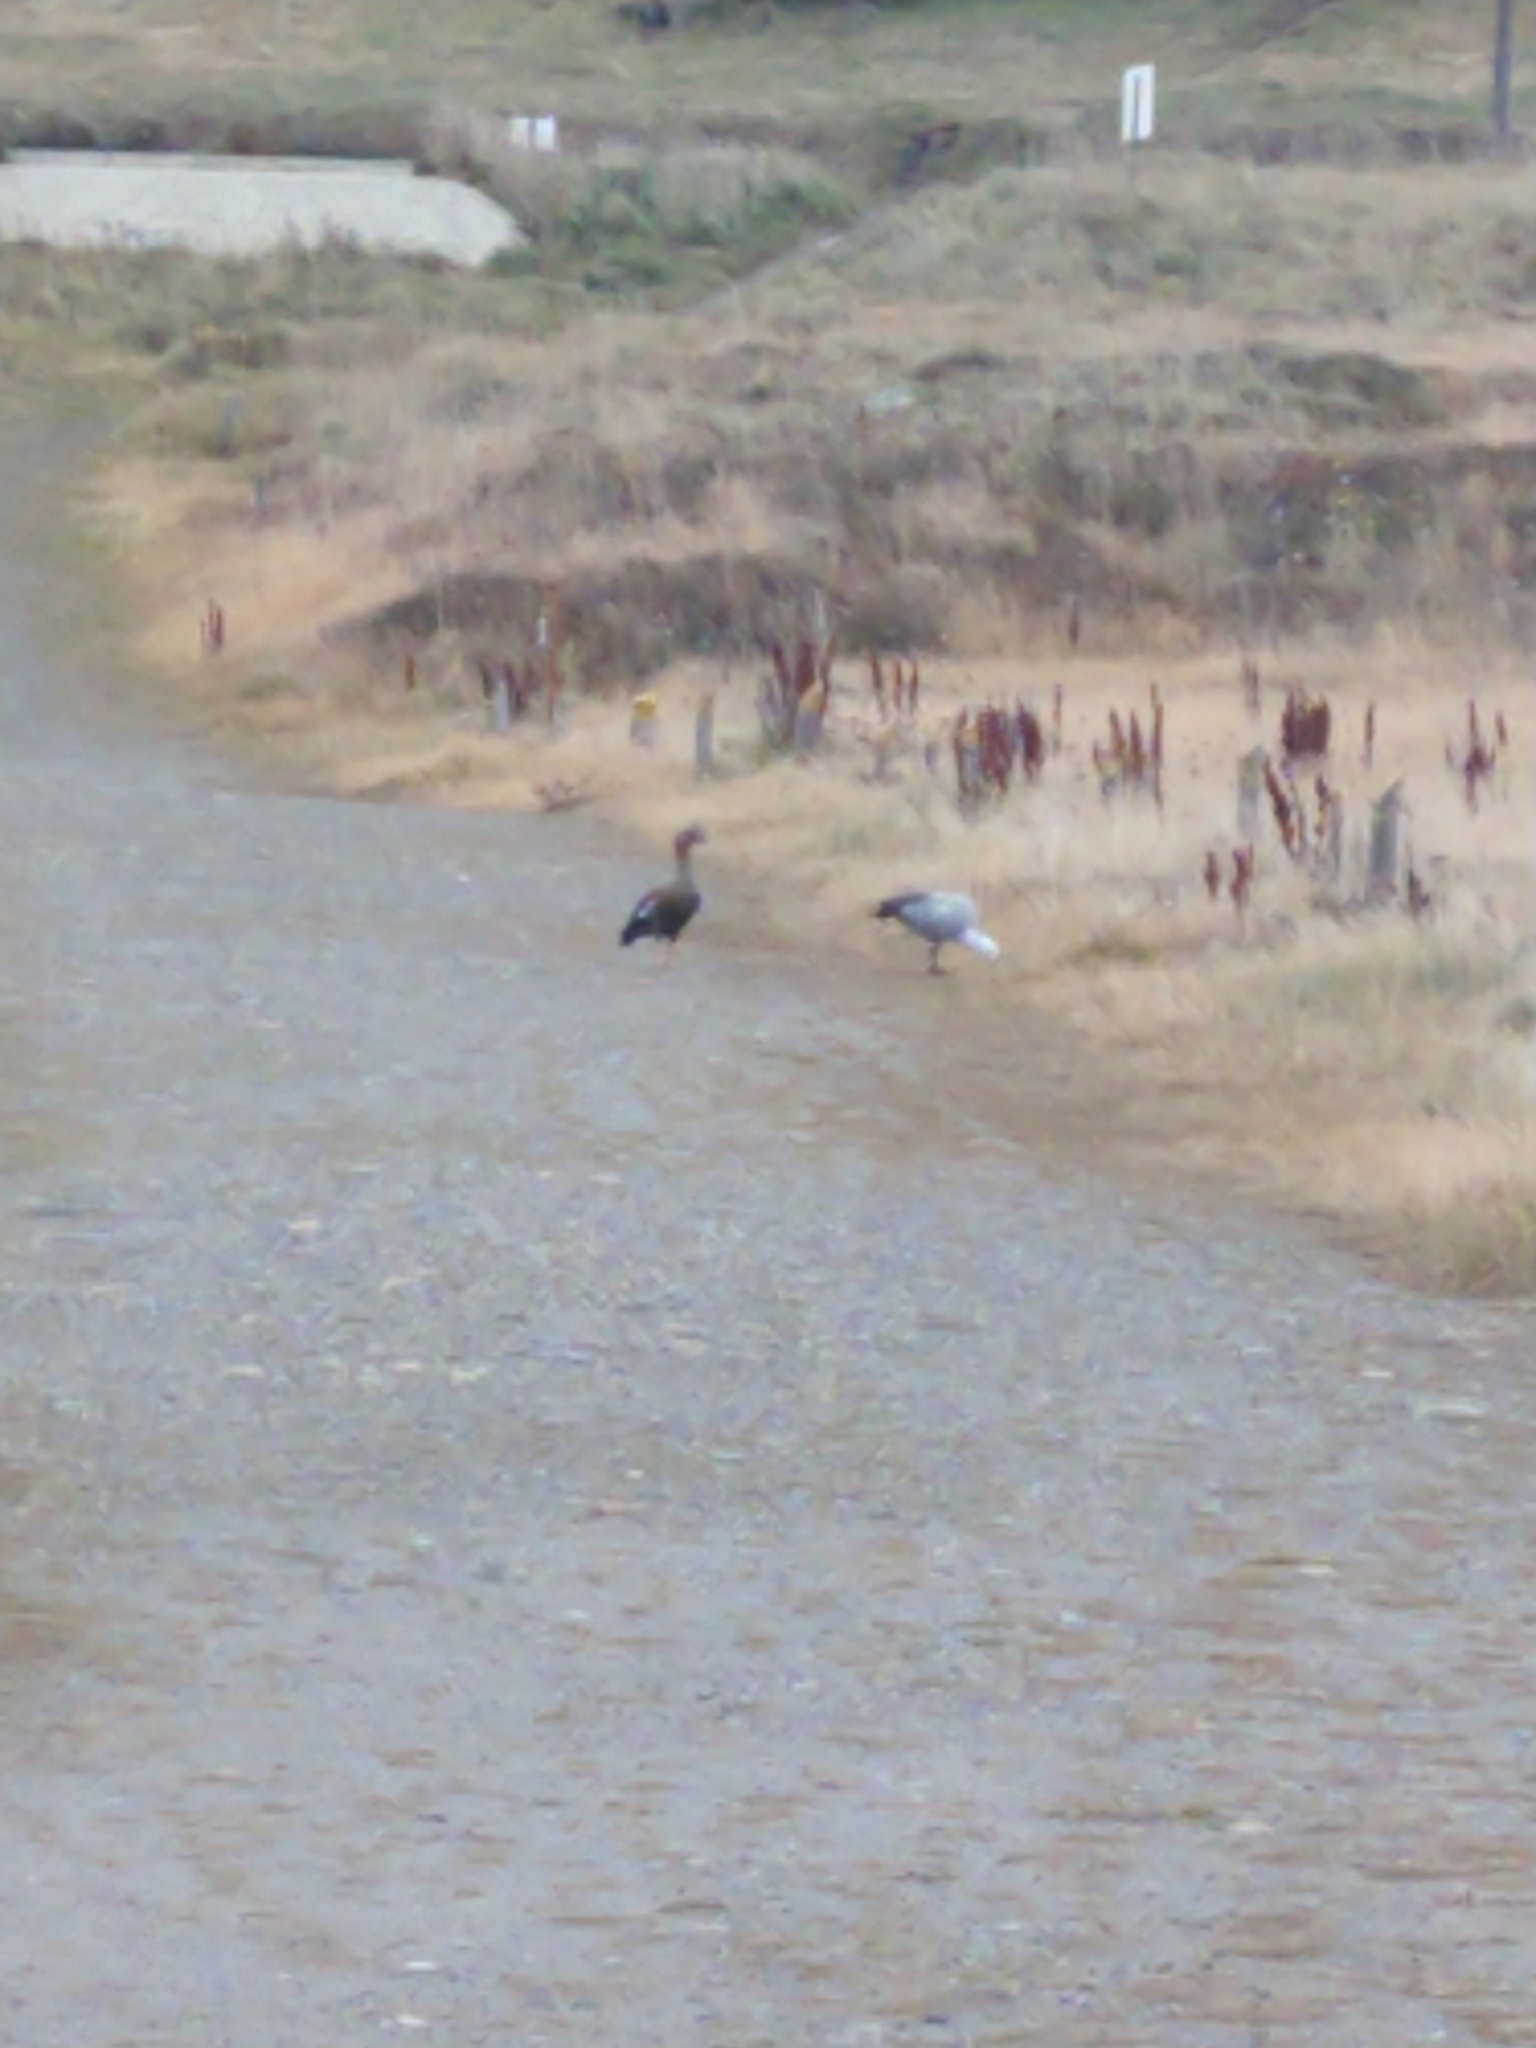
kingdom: Animalia
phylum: Chordata
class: Aves
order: Anseriformes
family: Anatidae
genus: Chloephaga
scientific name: Chloephaga picta
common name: Upland goose
